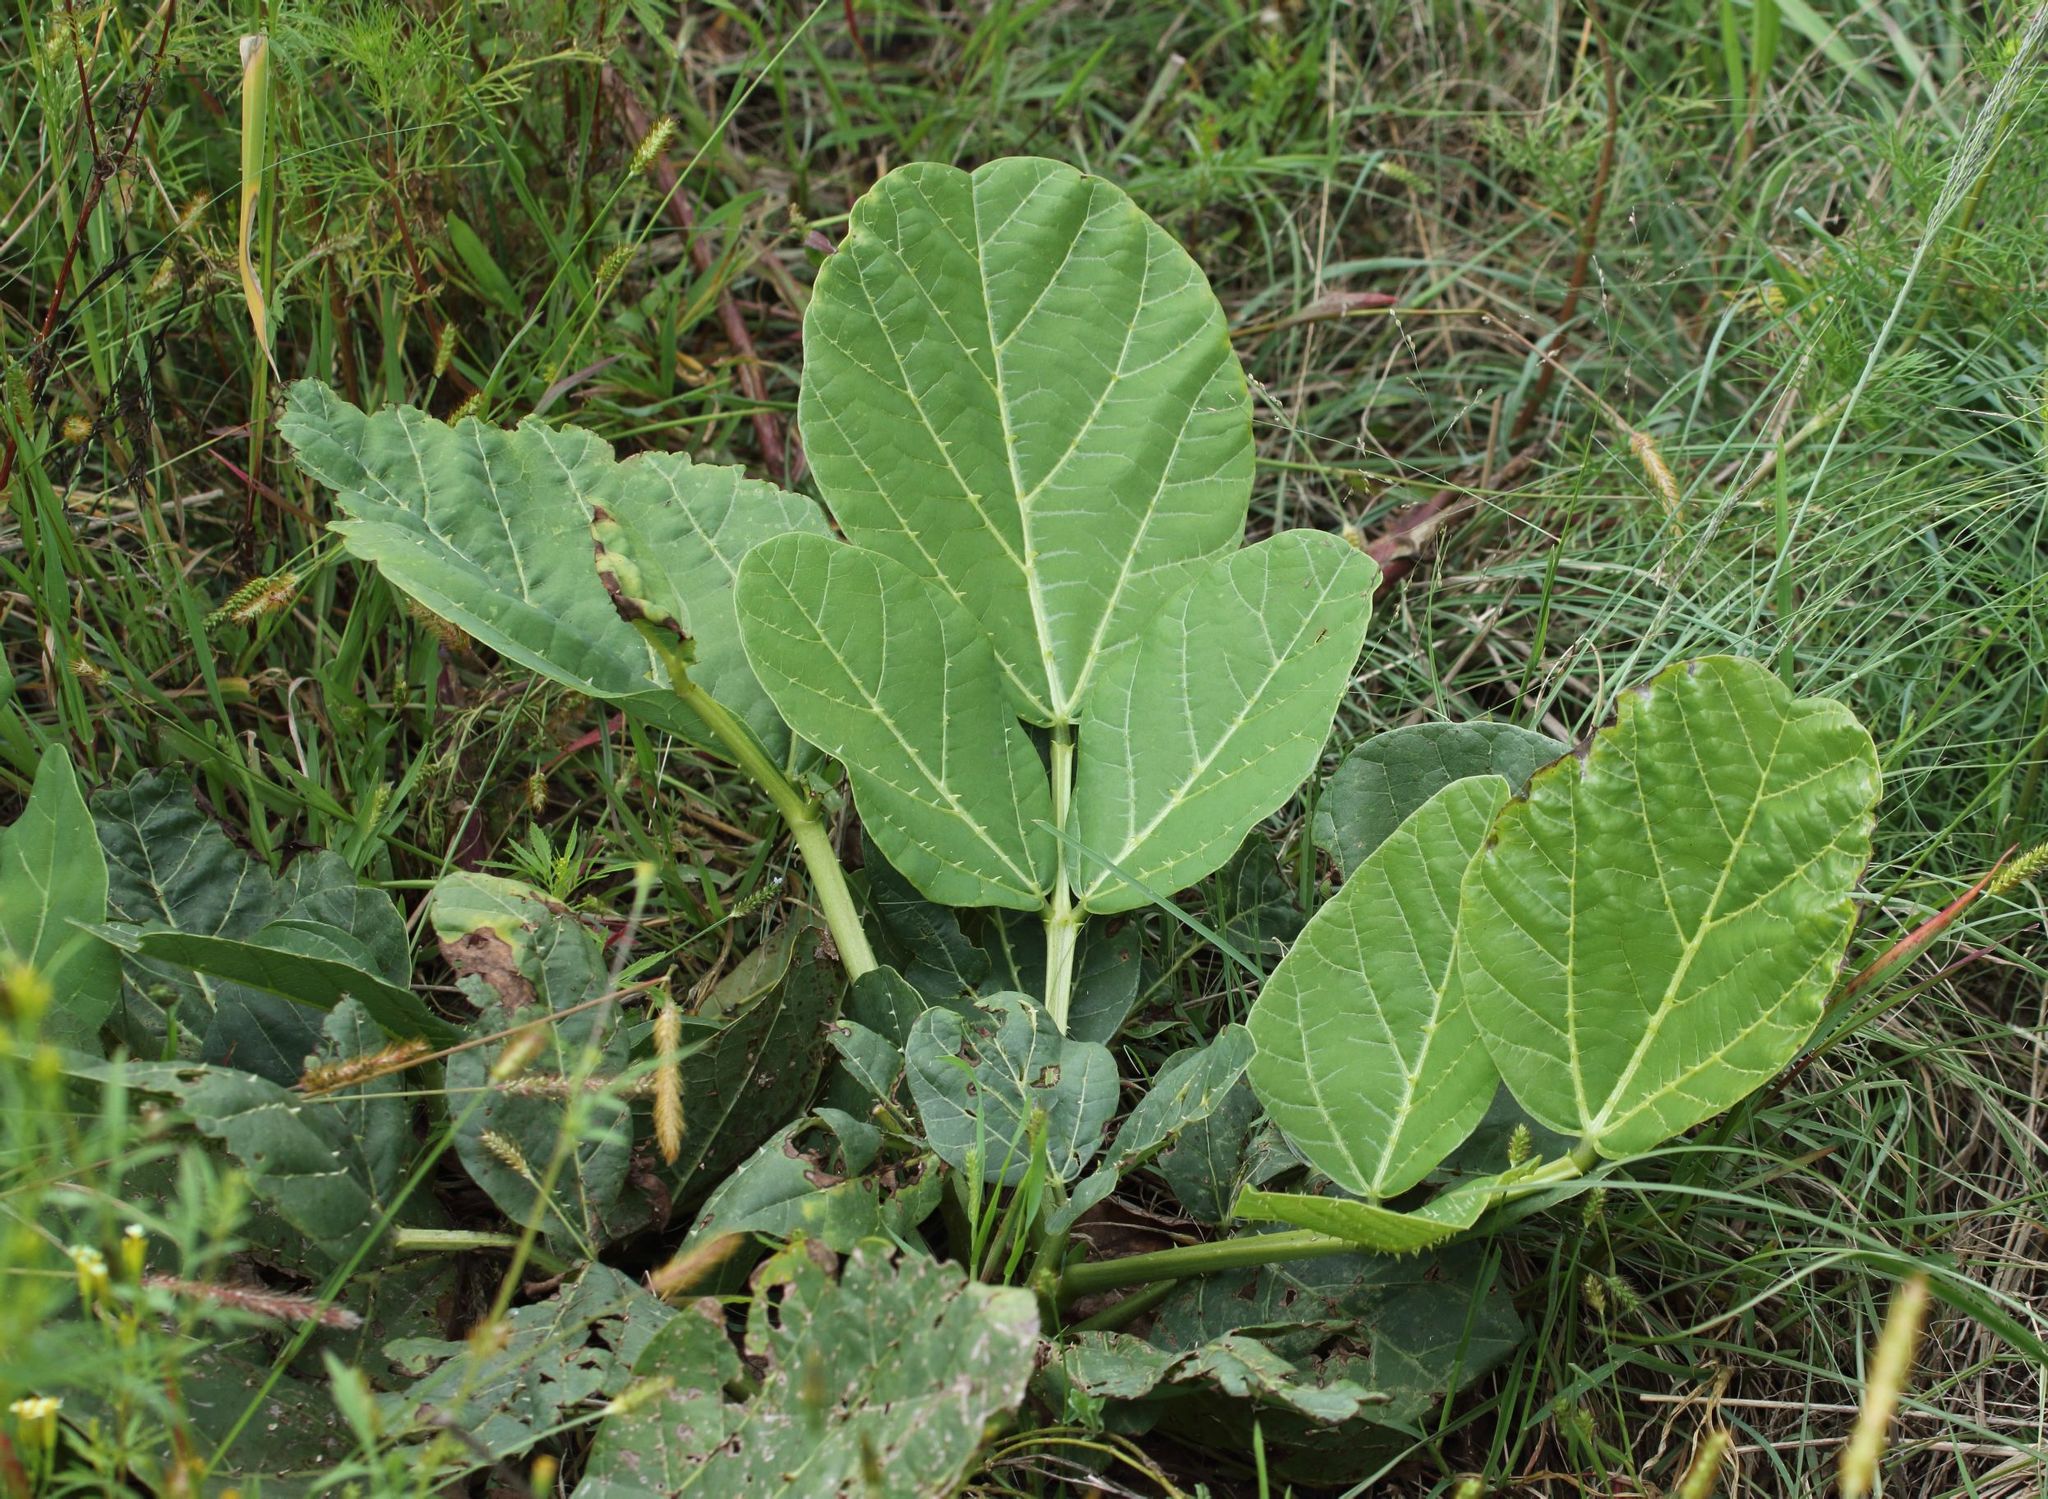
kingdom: Plantae
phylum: Tracheophyta
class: Magnoliopsida
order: Fabales
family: Fabaceae
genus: Erythrina
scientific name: Erythrina zeyheri
